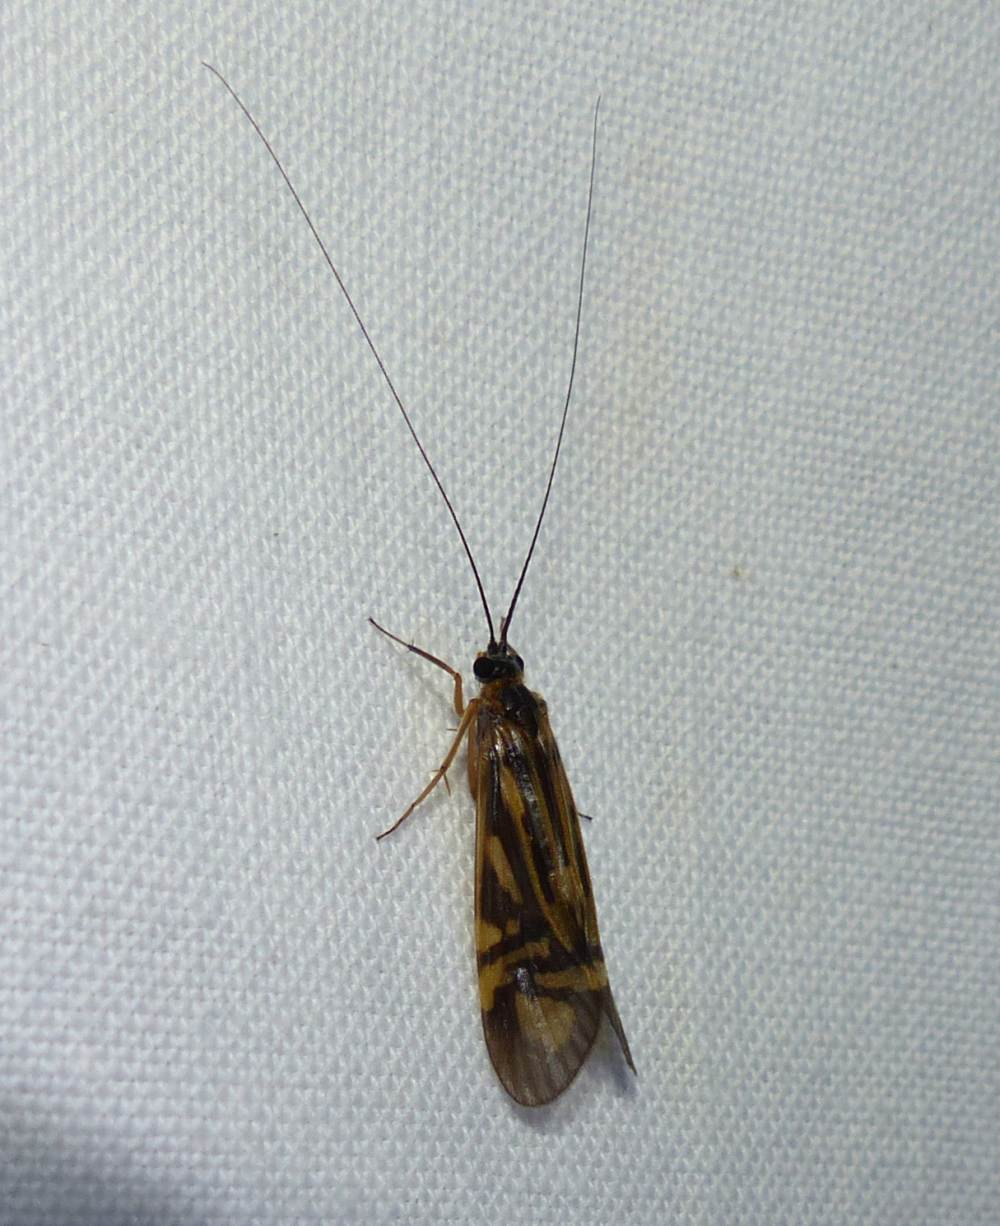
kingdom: Animalia
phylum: Arthropoda
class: Insecta
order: Trichoptera
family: Hydropsychidae
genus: Macrostemum
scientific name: Macrostemum zebratum
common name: Zebra caddisfly
